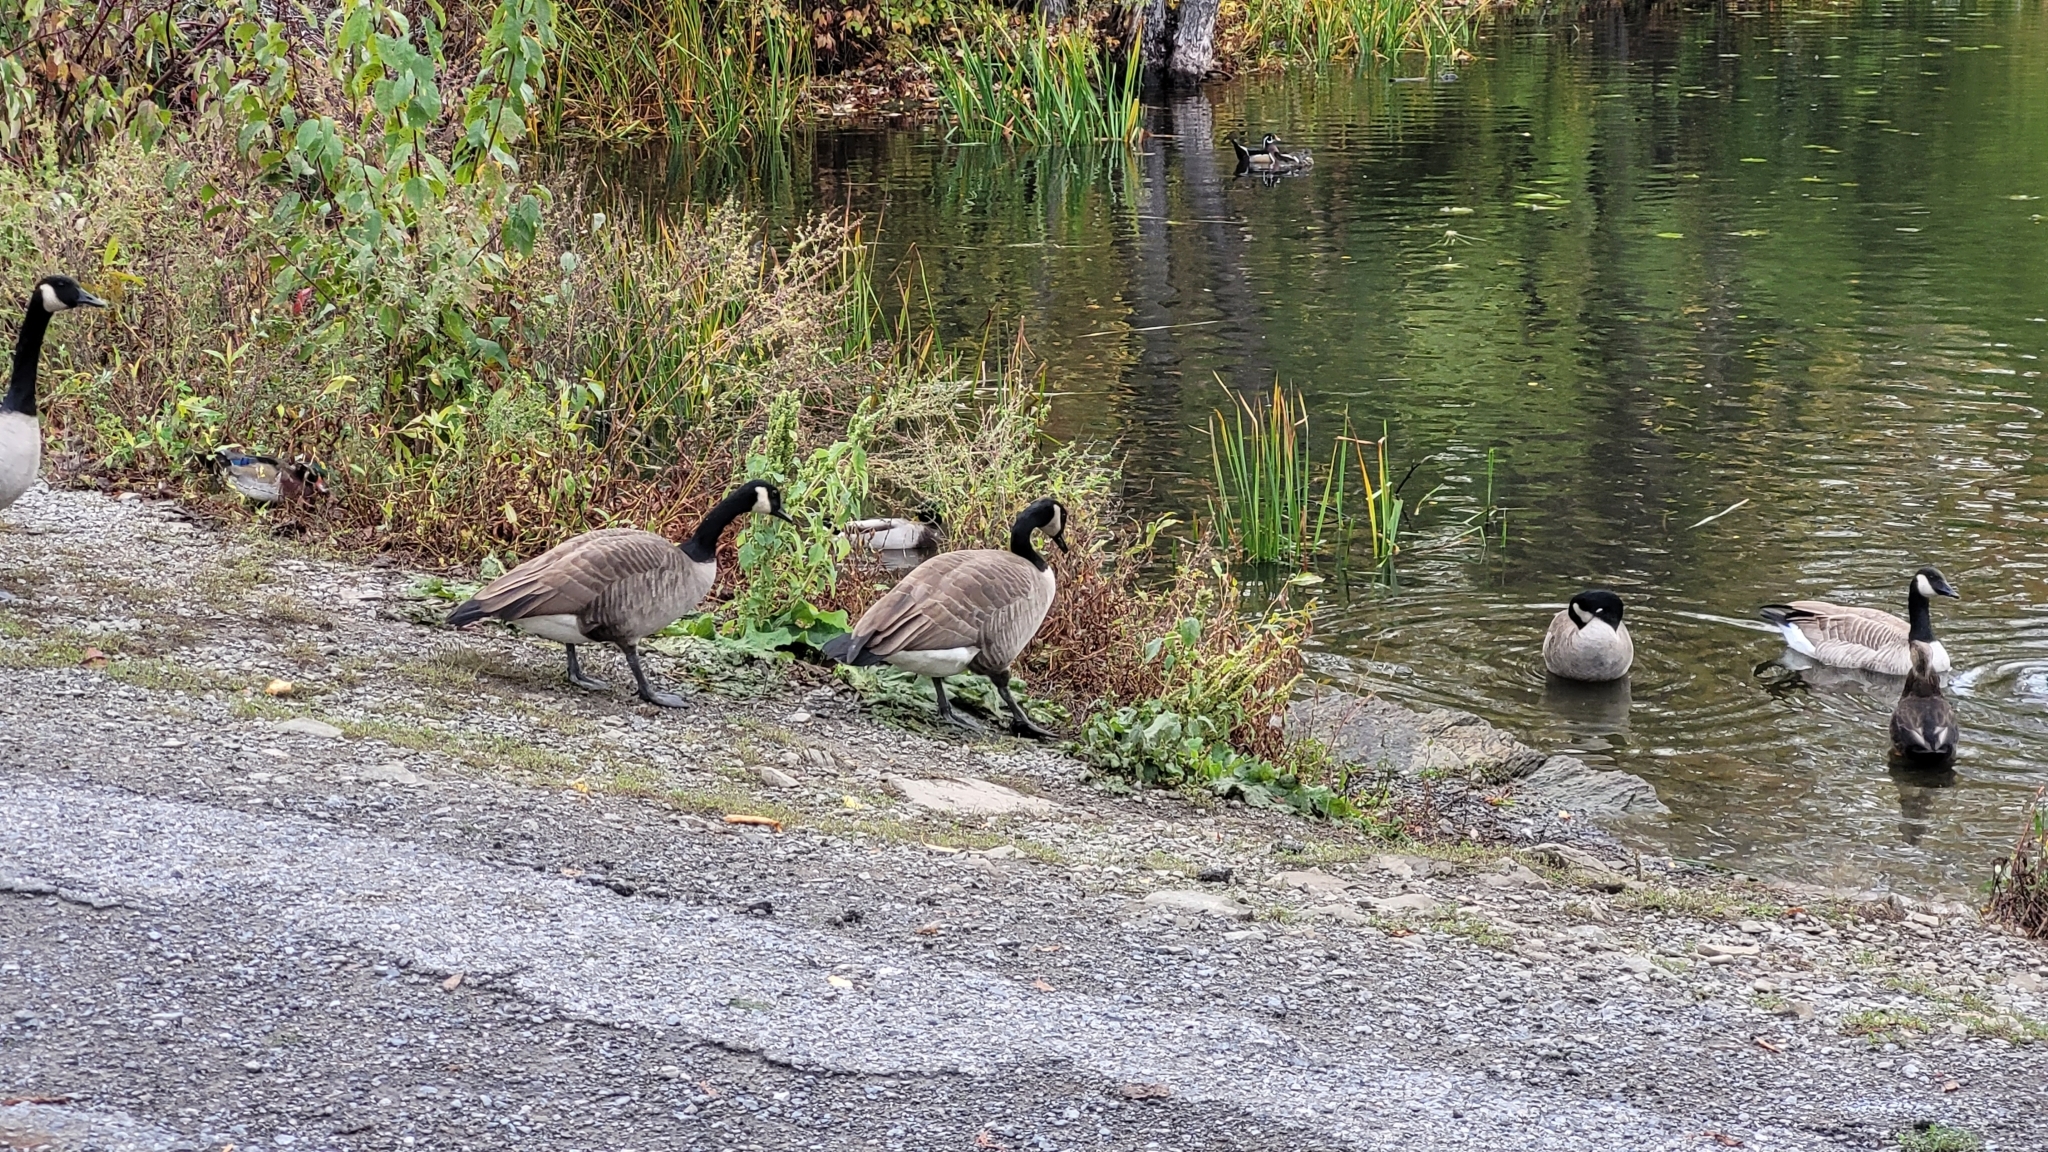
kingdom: Animalia
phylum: Chordata
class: Aves
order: Anseriformes
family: Anatidae
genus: Branta
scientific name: Branta canadensis
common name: Canada goose
